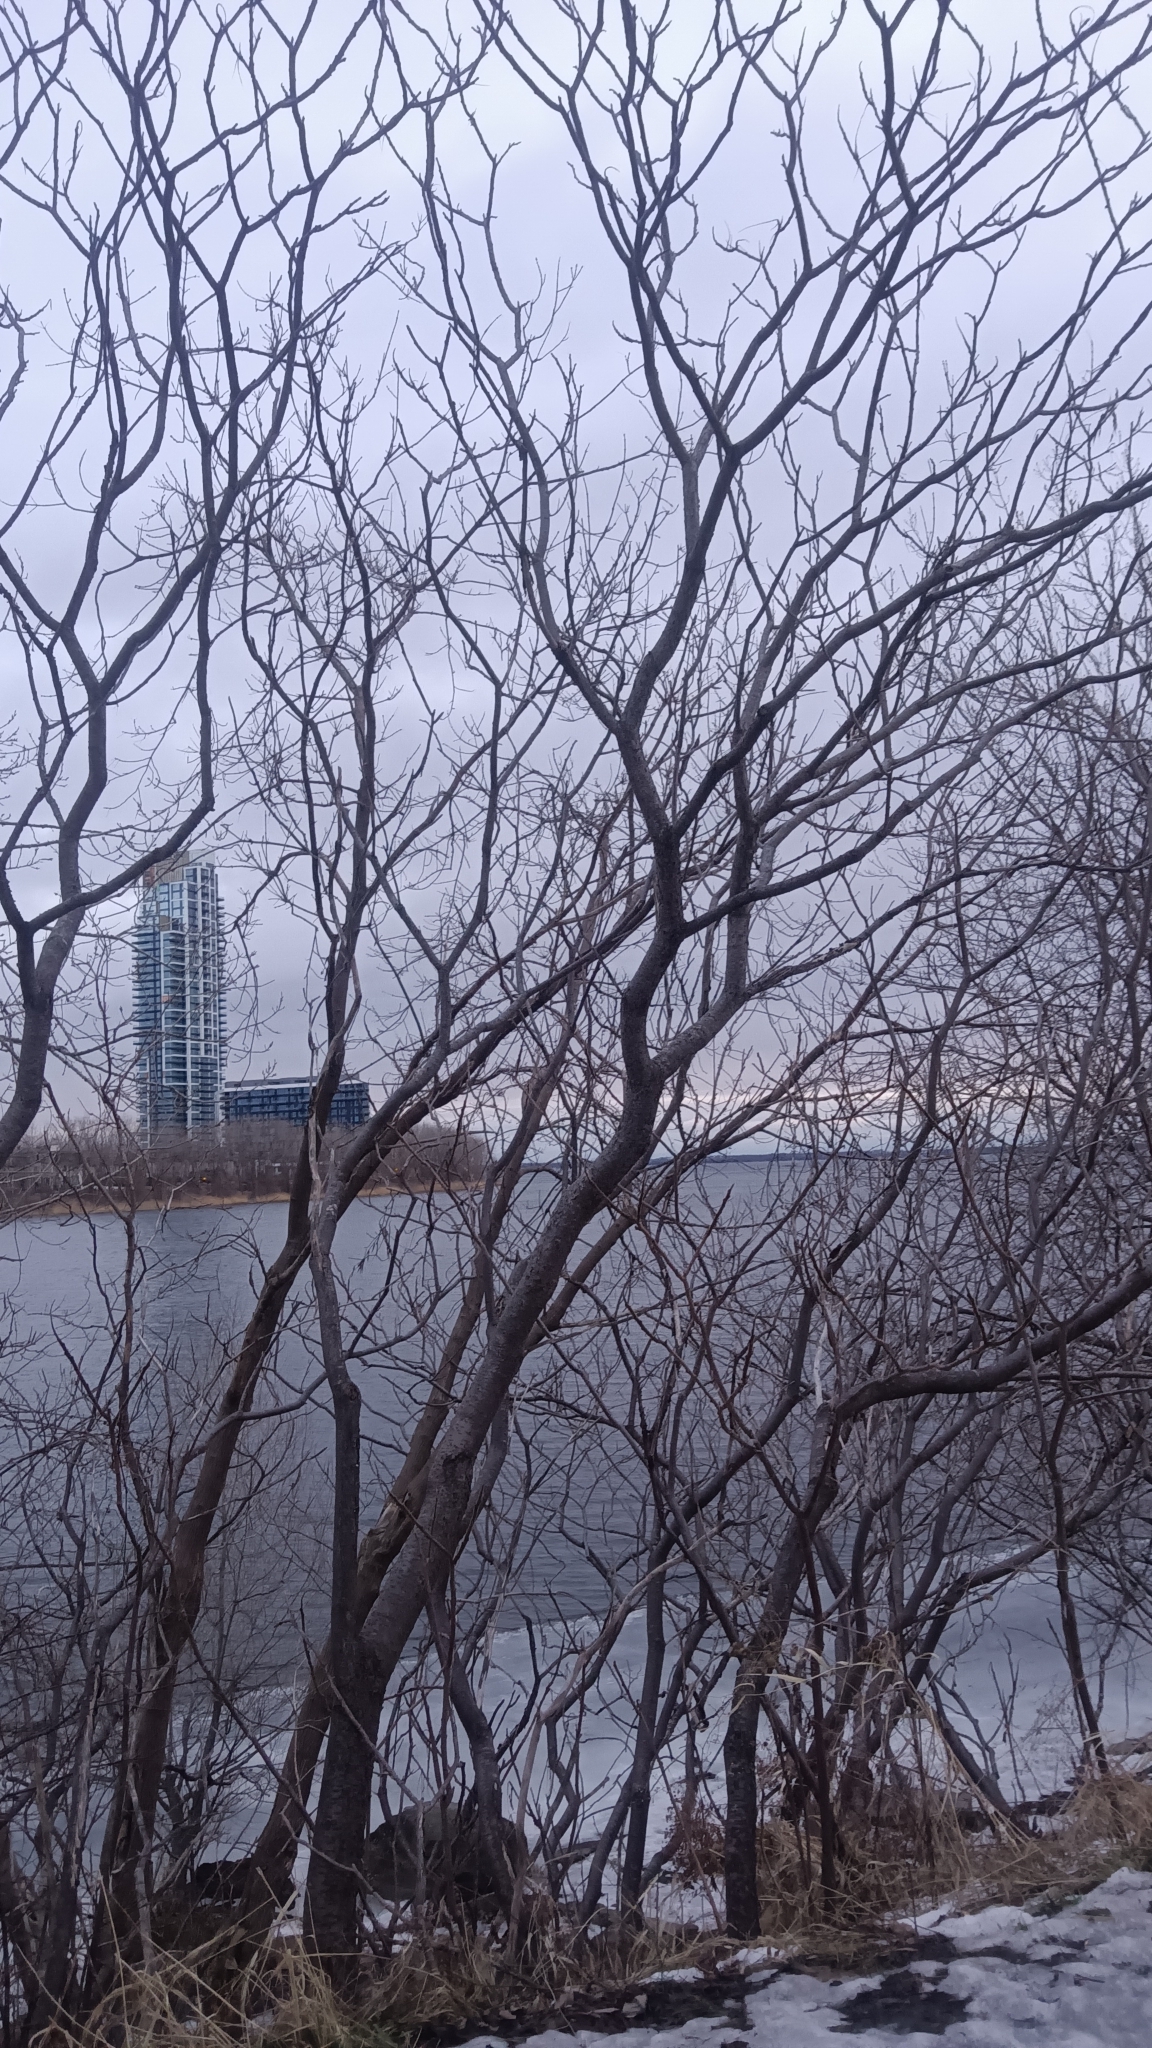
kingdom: Plantae
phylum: Tracheophyta
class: Magnoliopsida
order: Sapindales
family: Anacardiaceae
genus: Rhus
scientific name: Rhus typhina
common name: Staghorn sumac
